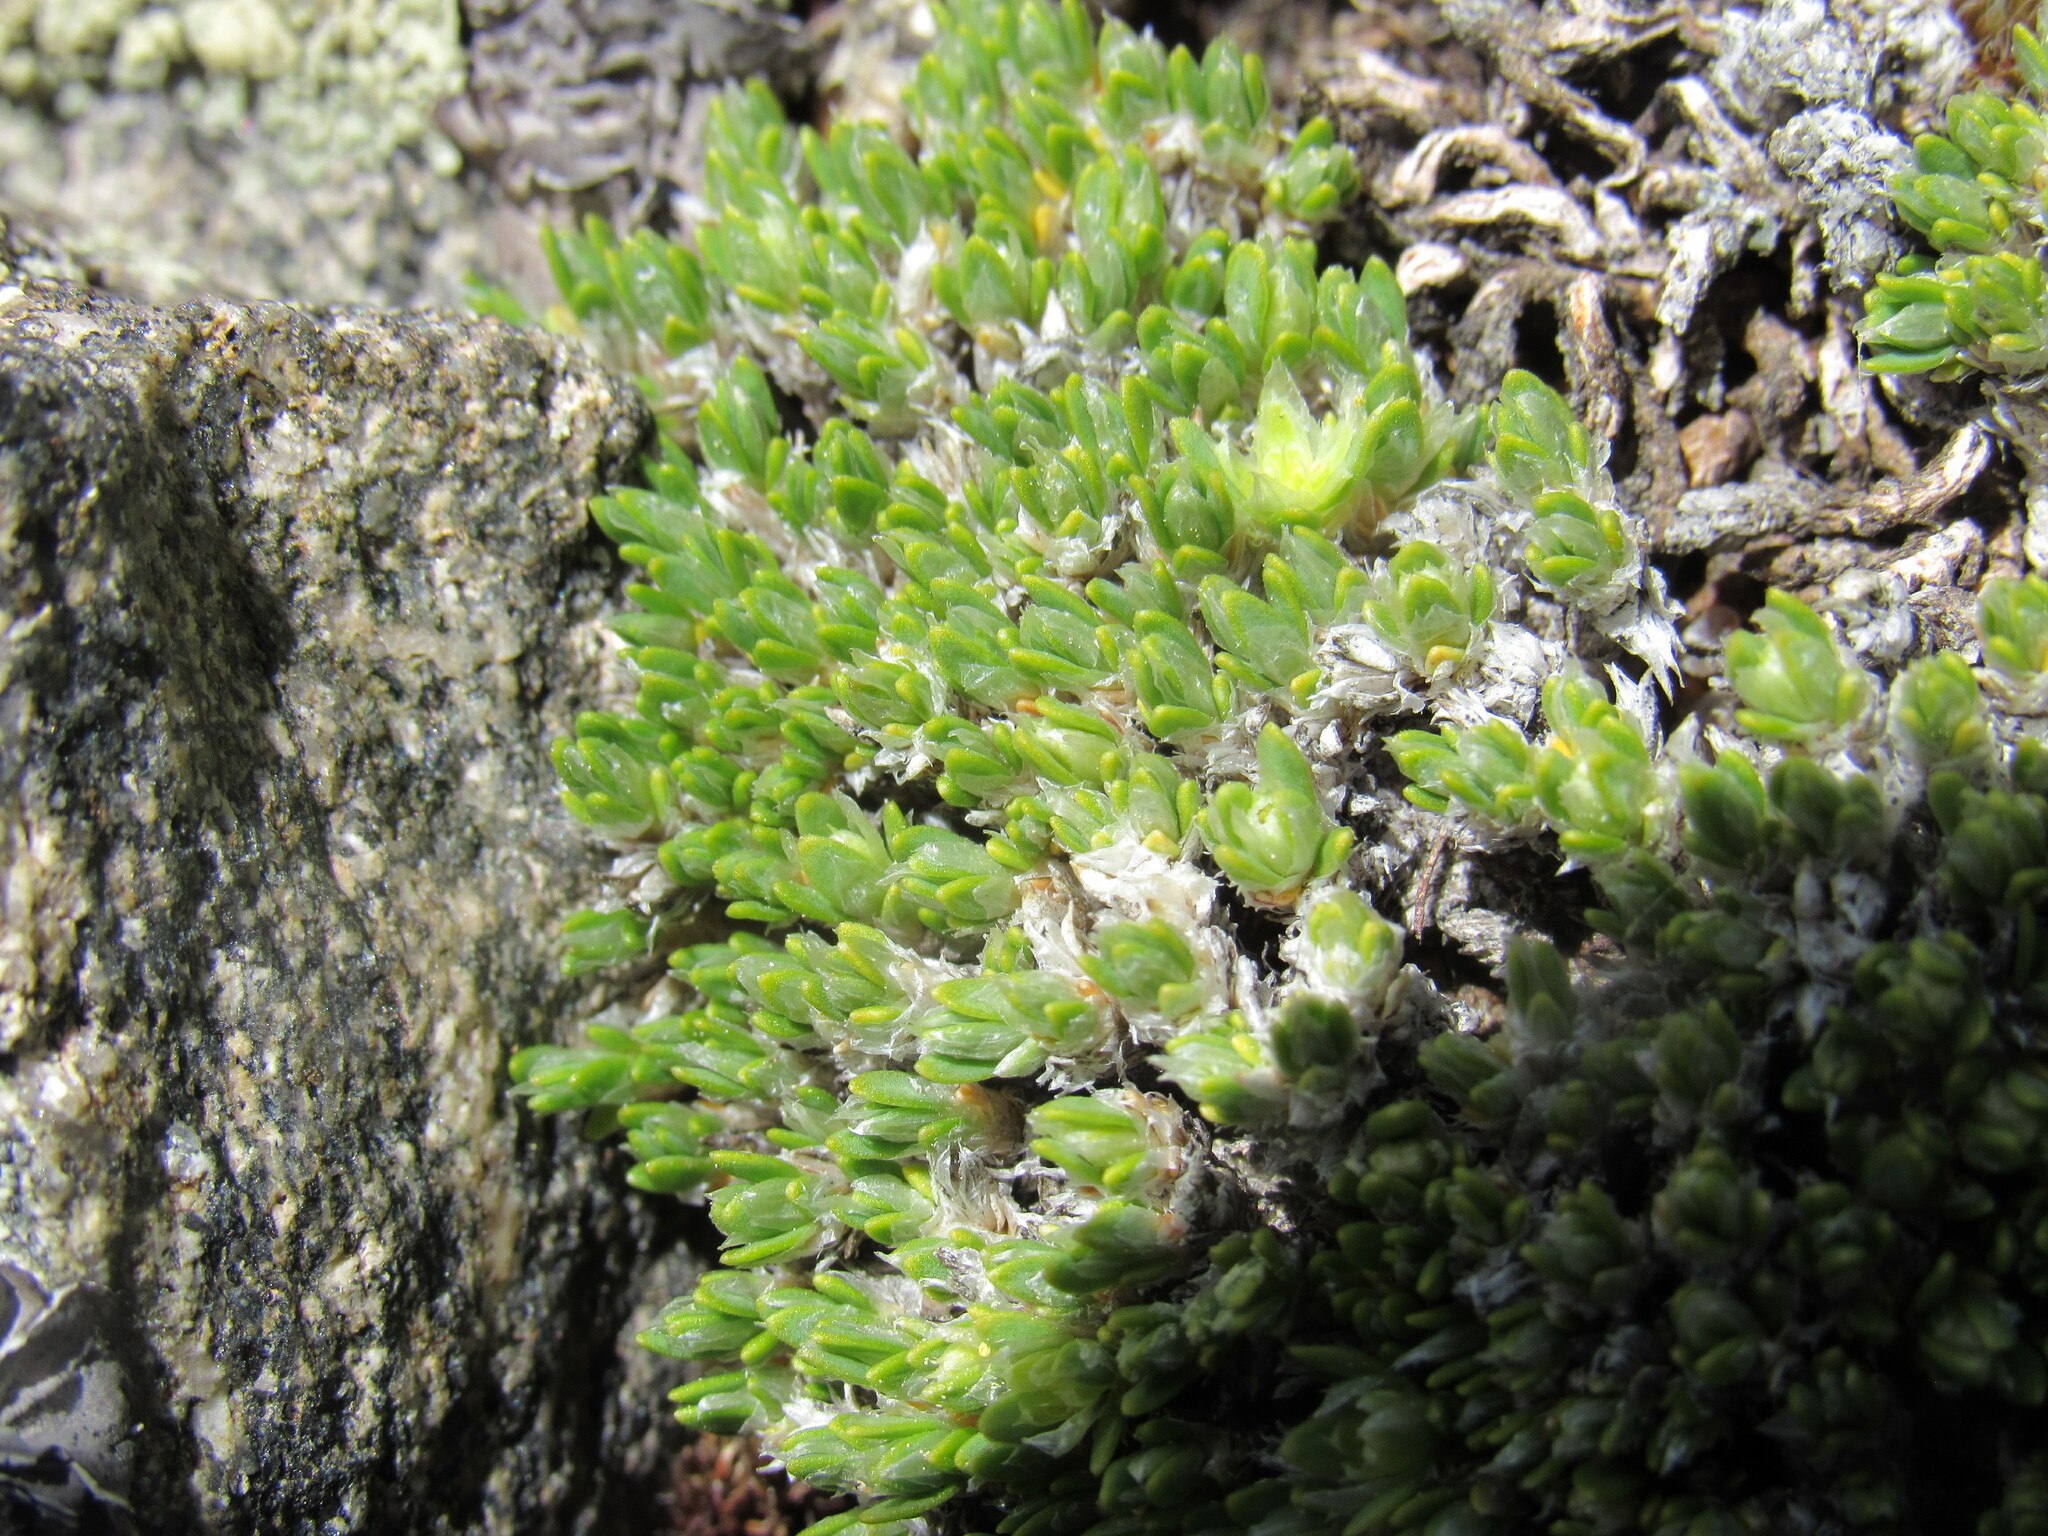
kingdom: Plantae
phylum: Tracheophyta
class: Magnoliopsida
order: Caryophyllales
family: Caryophyllaceae
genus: Paronychia
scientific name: Paronychia pulvinata
